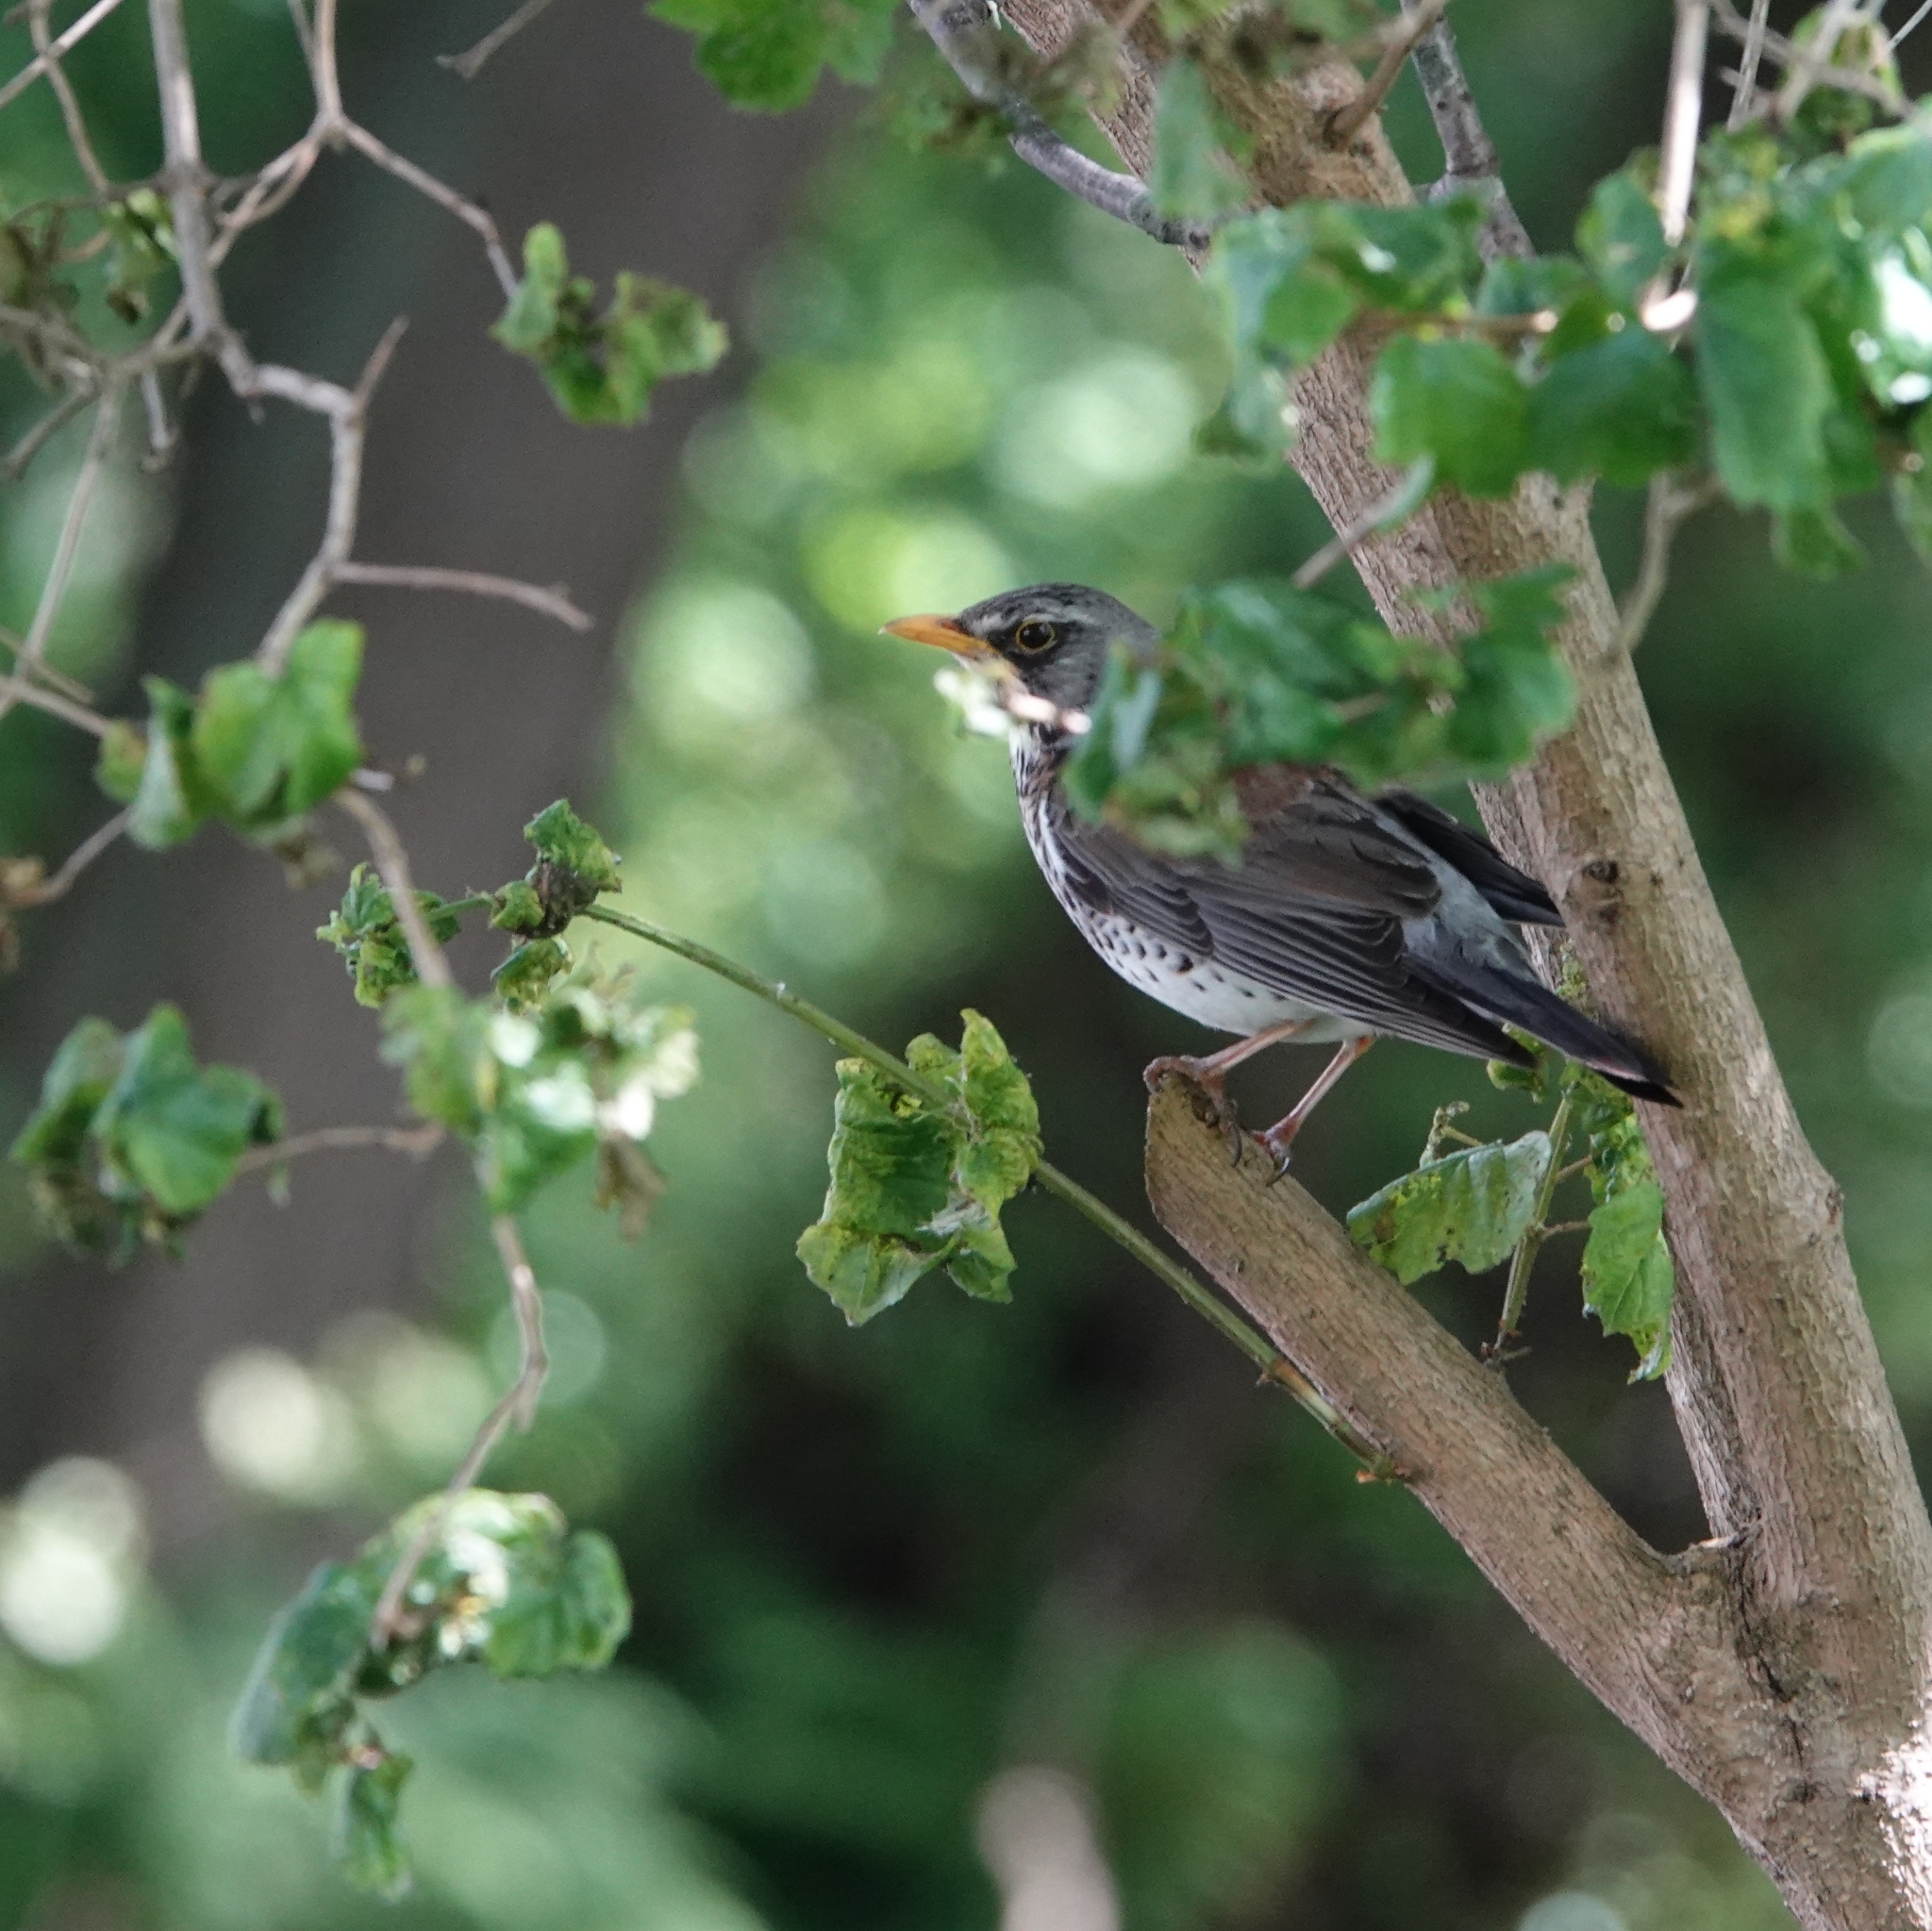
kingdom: Animalia
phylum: Chordata
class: Aves
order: Passeriformes
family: Turdidae
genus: Turdus
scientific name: Turdus pilaris
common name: Fieldfare
